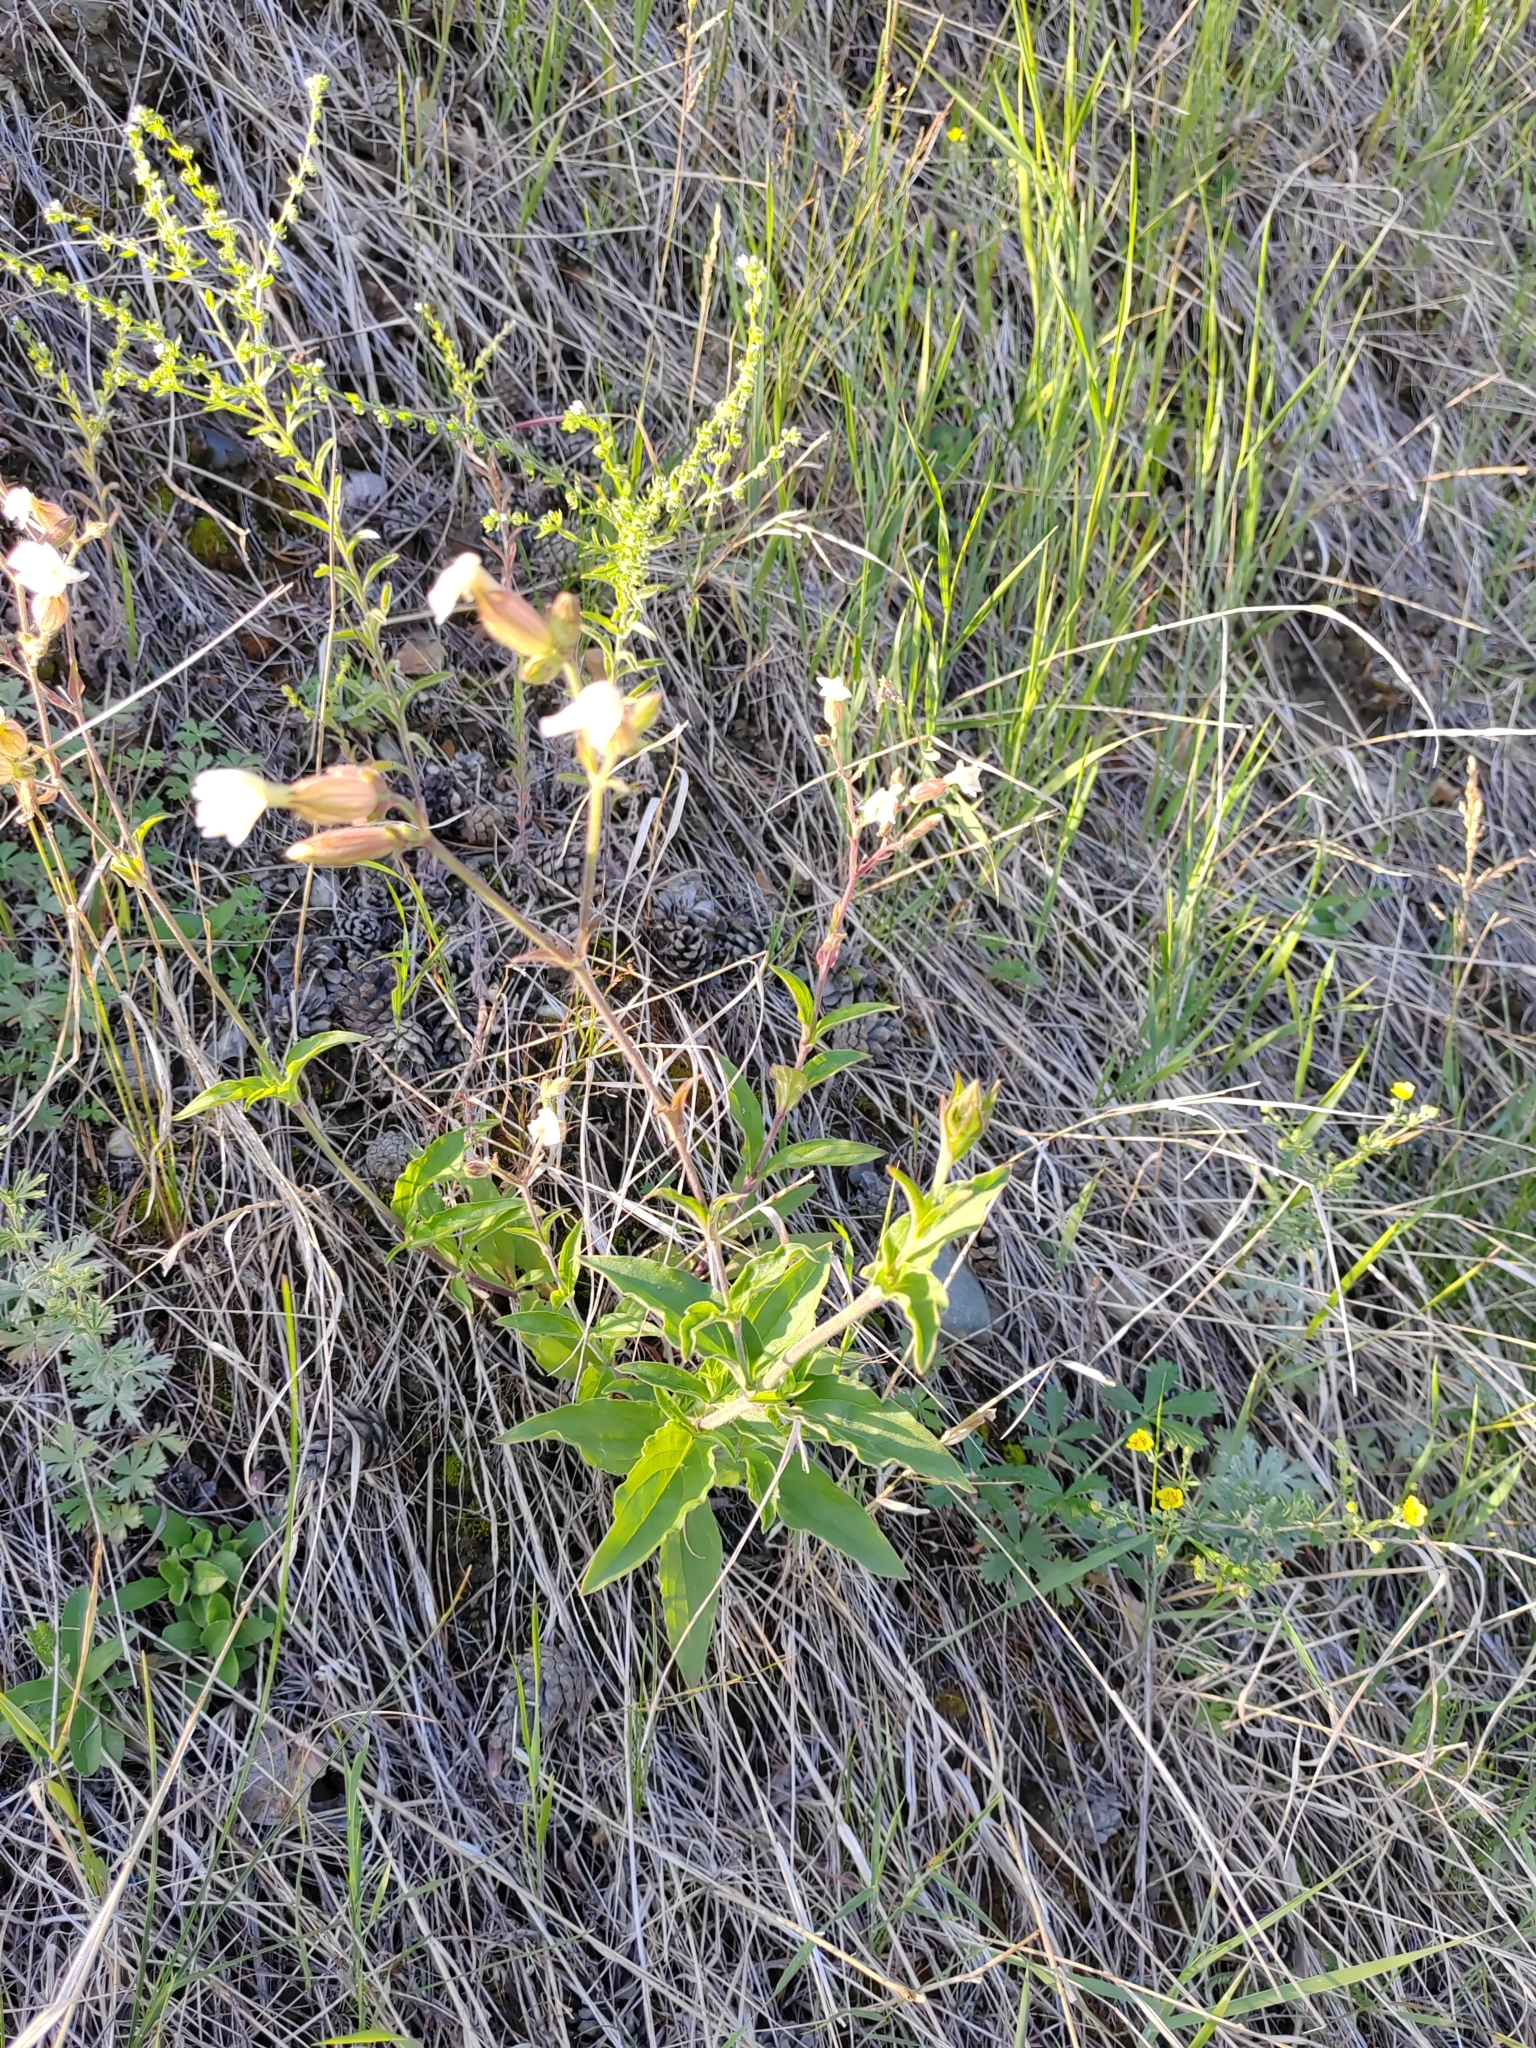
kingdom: Plantae
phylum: Tracheophyta
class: Magnoliopsida
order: Caryophyllales
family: Caryophyllaceae
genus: Silene
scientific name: Silene latifolia
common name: White campion
